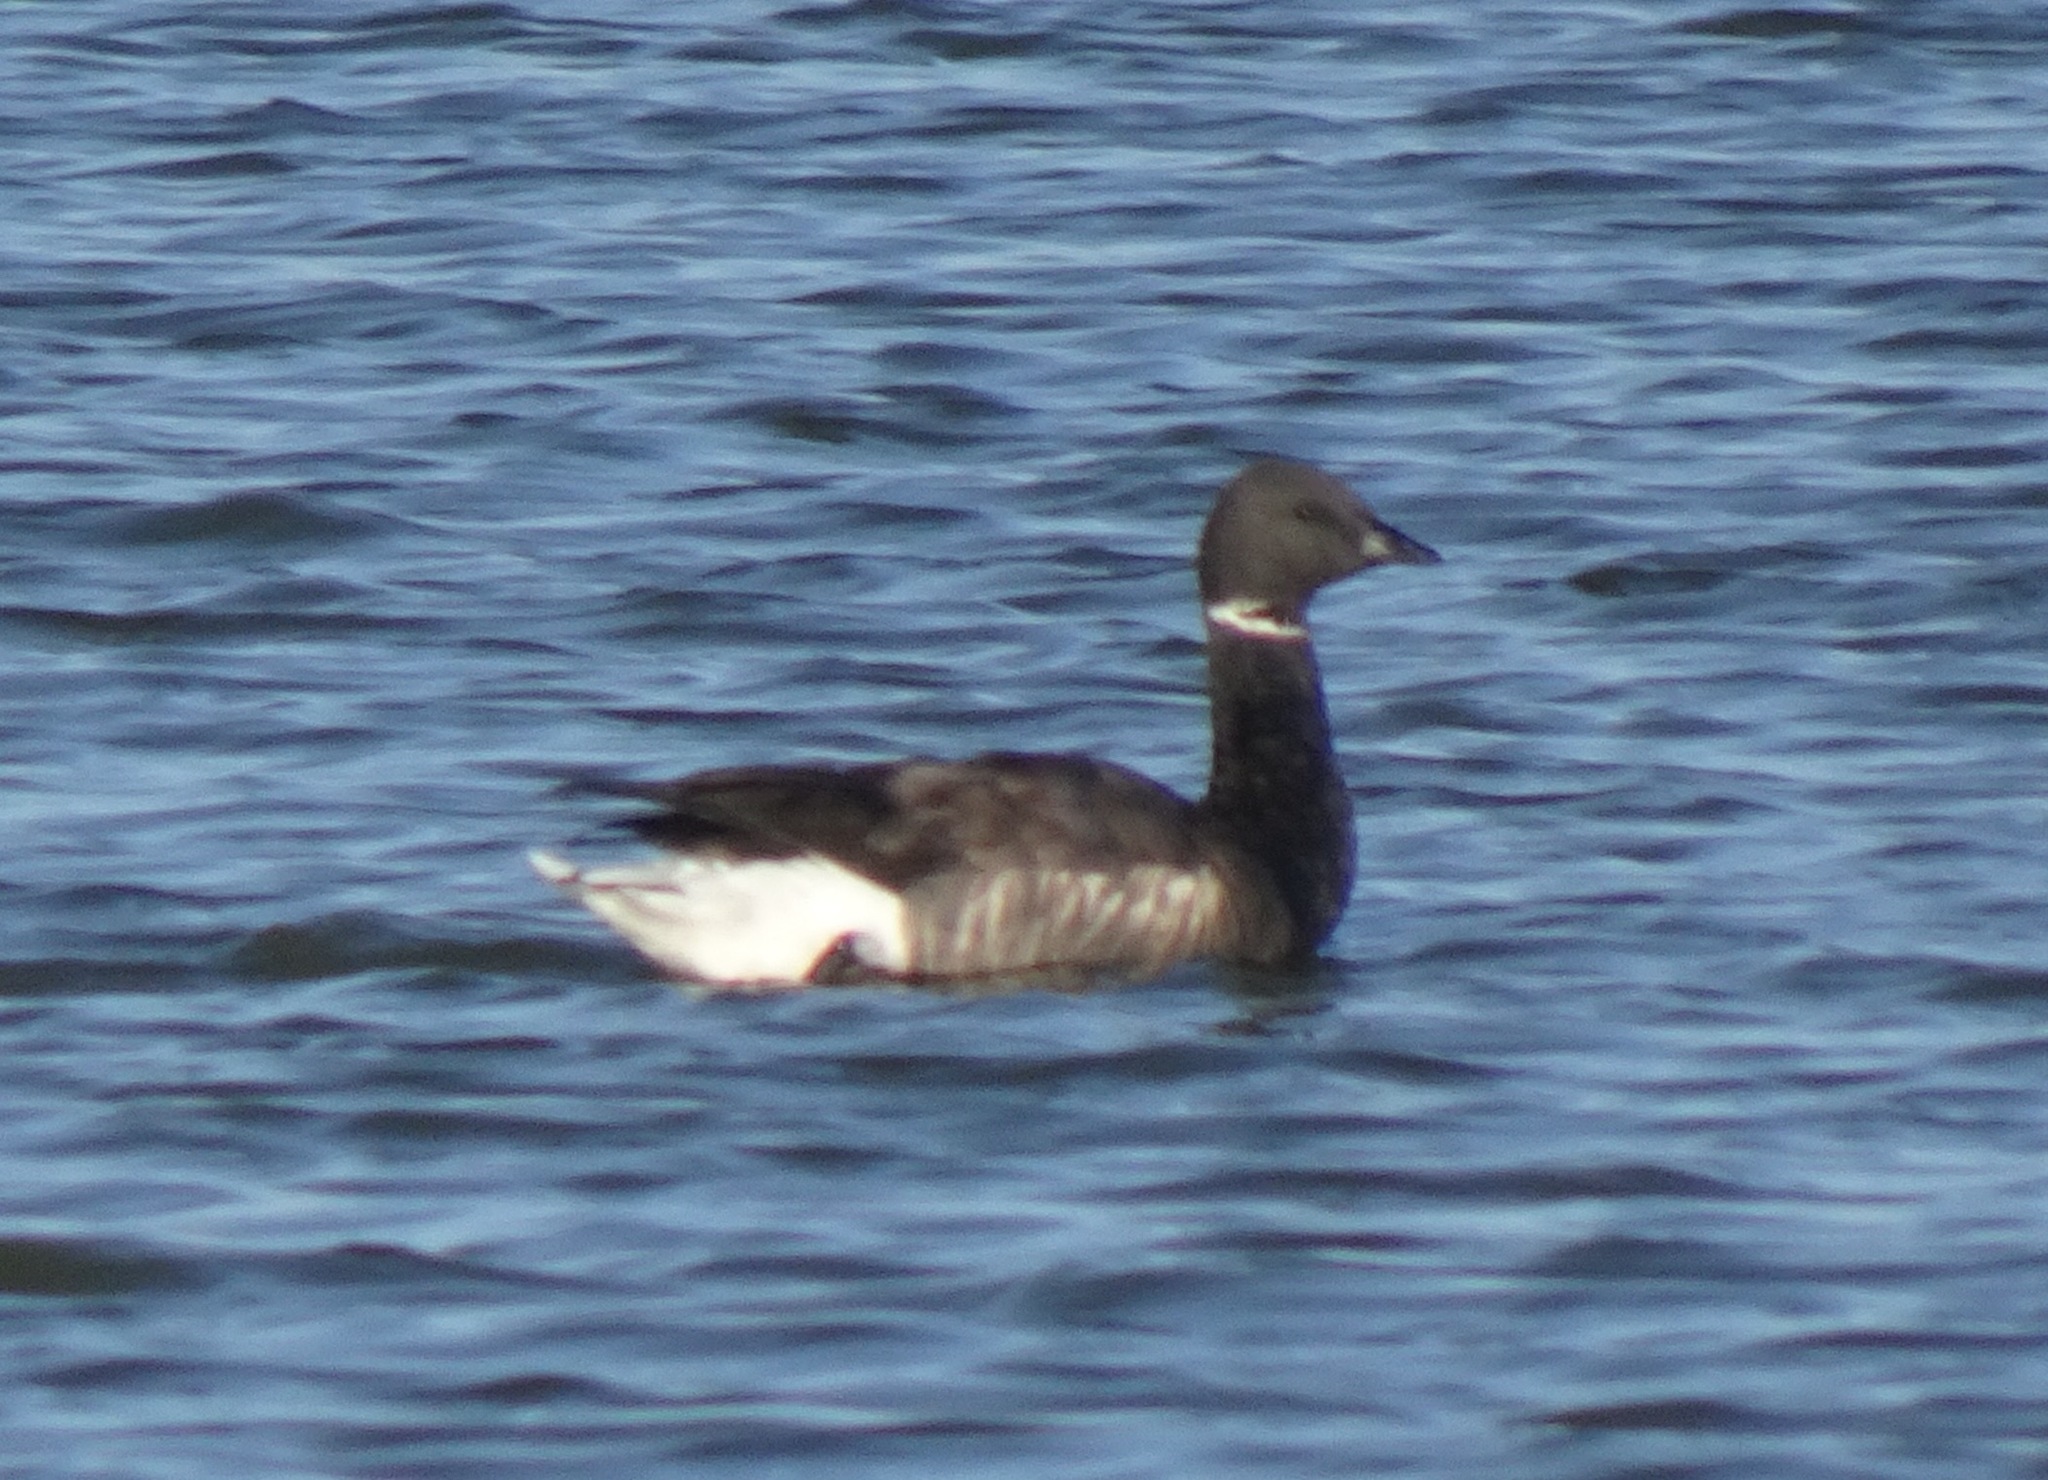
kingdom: Animalia
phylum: Chordata
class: Aves
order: Anseriformes
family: Anatidae
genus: Branta
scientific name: Branta bernicla
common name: Brant goose
